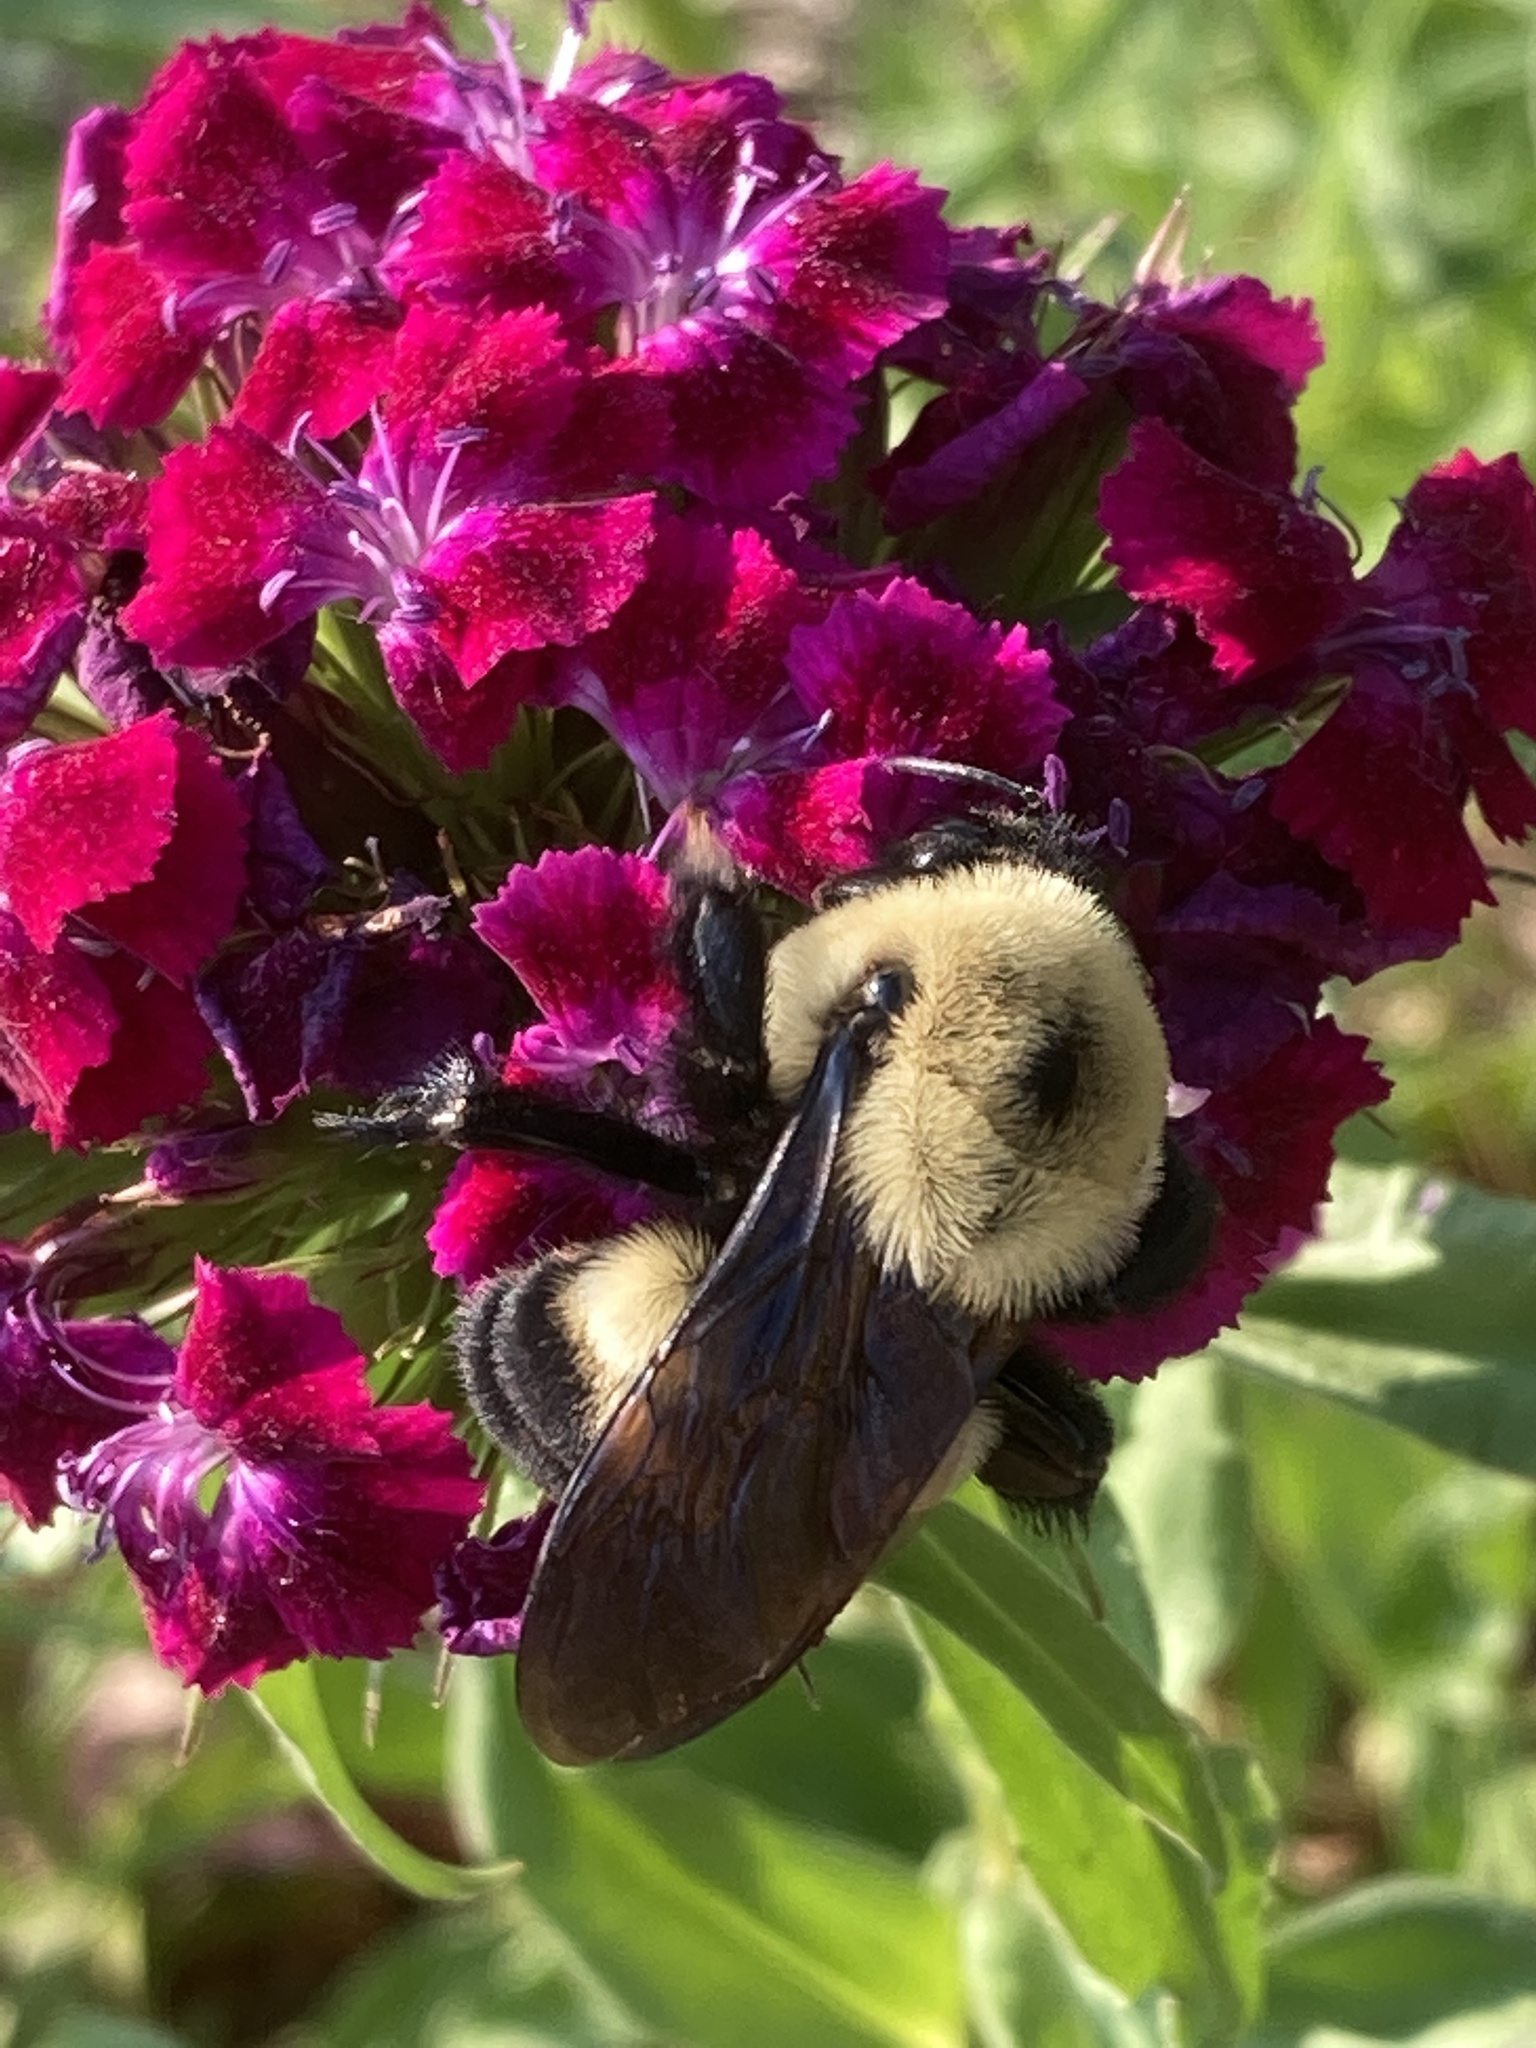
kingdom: Animalia
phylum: Arthropoda
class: Insecta
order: Hymenoptera
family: Apidae
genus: Bombus
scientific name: Bombus griseocollis
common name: Brown-belted bumble bee
